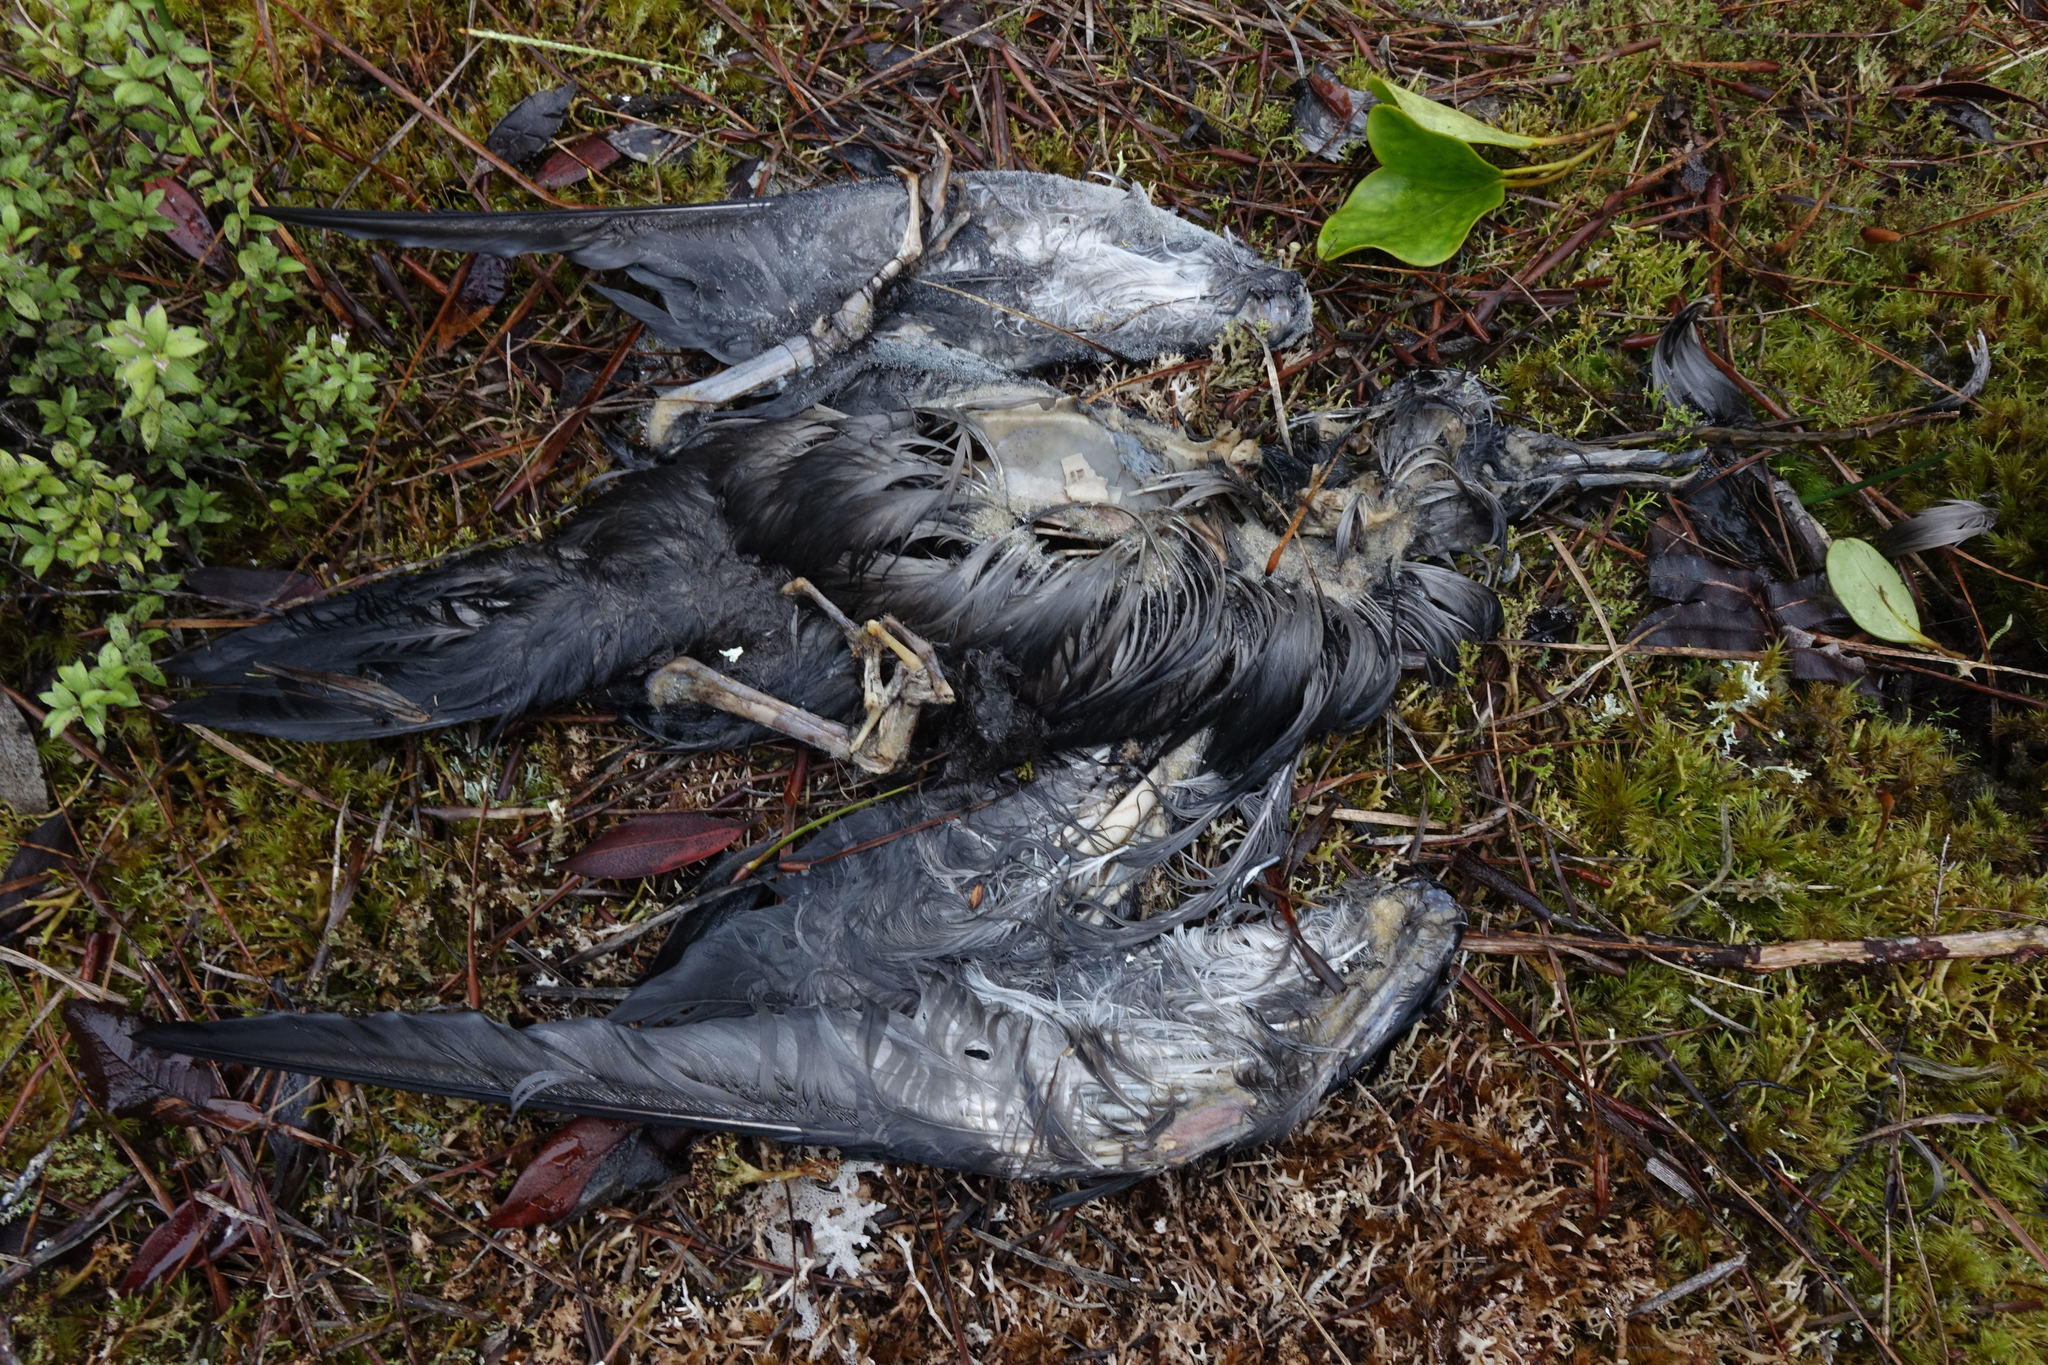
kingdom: Animalia
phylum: Chordata
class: Aves
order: Procellariiformes
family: Procellariidae
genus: Puffinus
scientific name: Puffinus griseus
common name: Sooty shearwater
